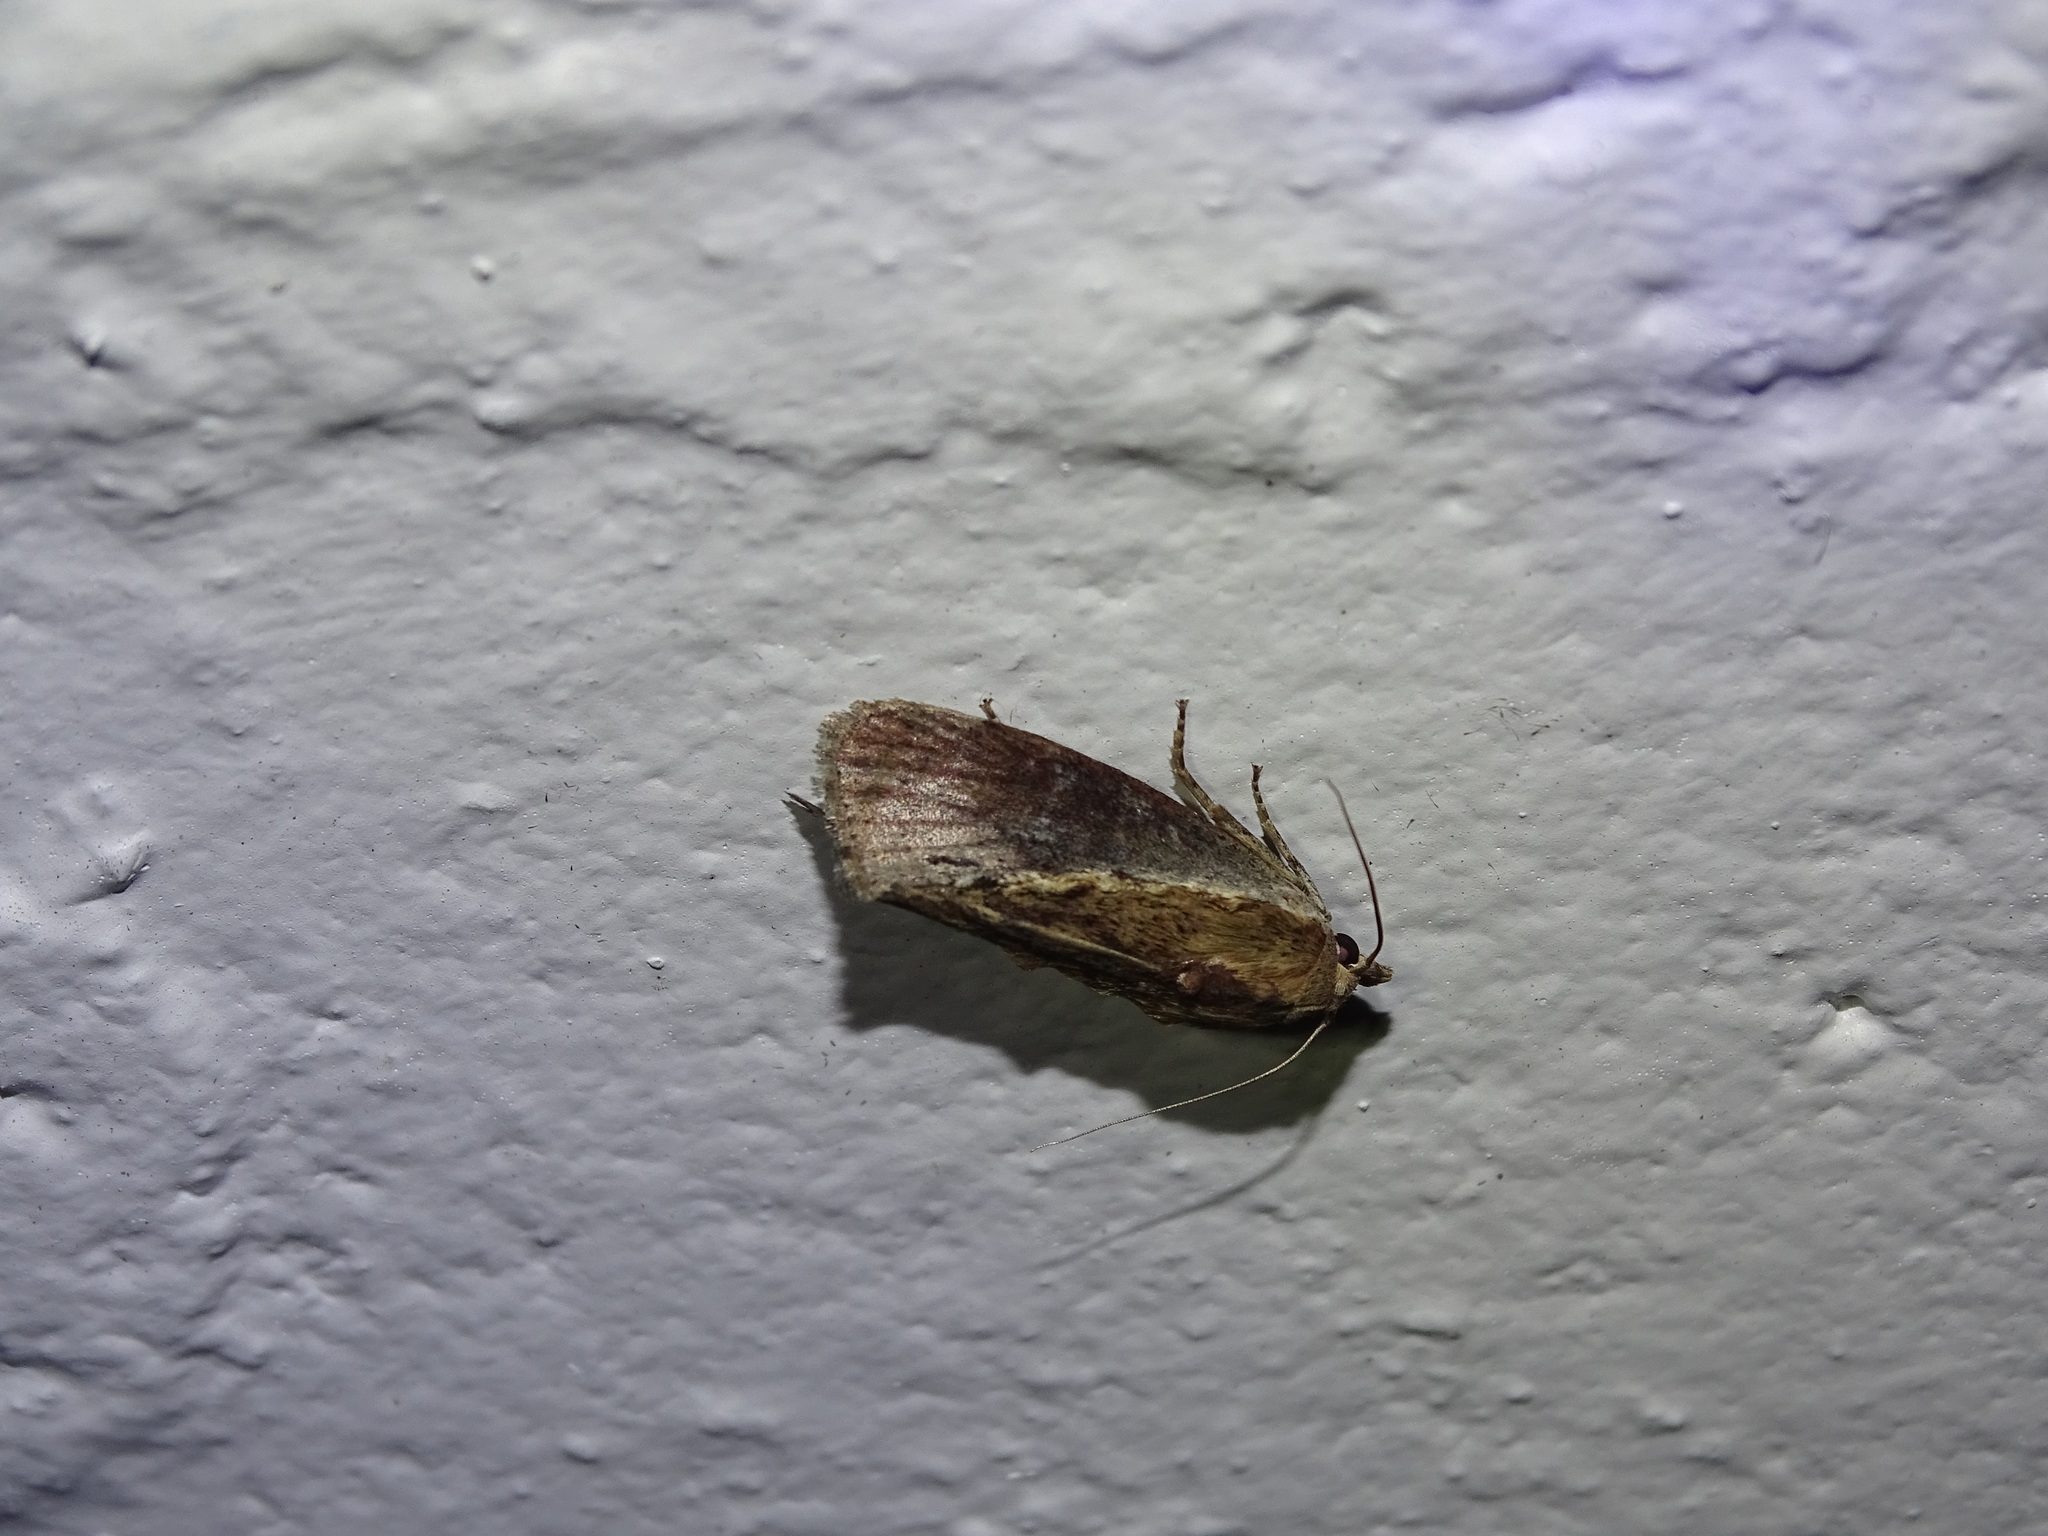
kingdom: Animalia
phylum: Arthropoda
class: Insecta
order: Lepidoptera
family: Pyralidae
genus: Galleria
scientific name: Galleria mellonella
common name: Greater wax moth
